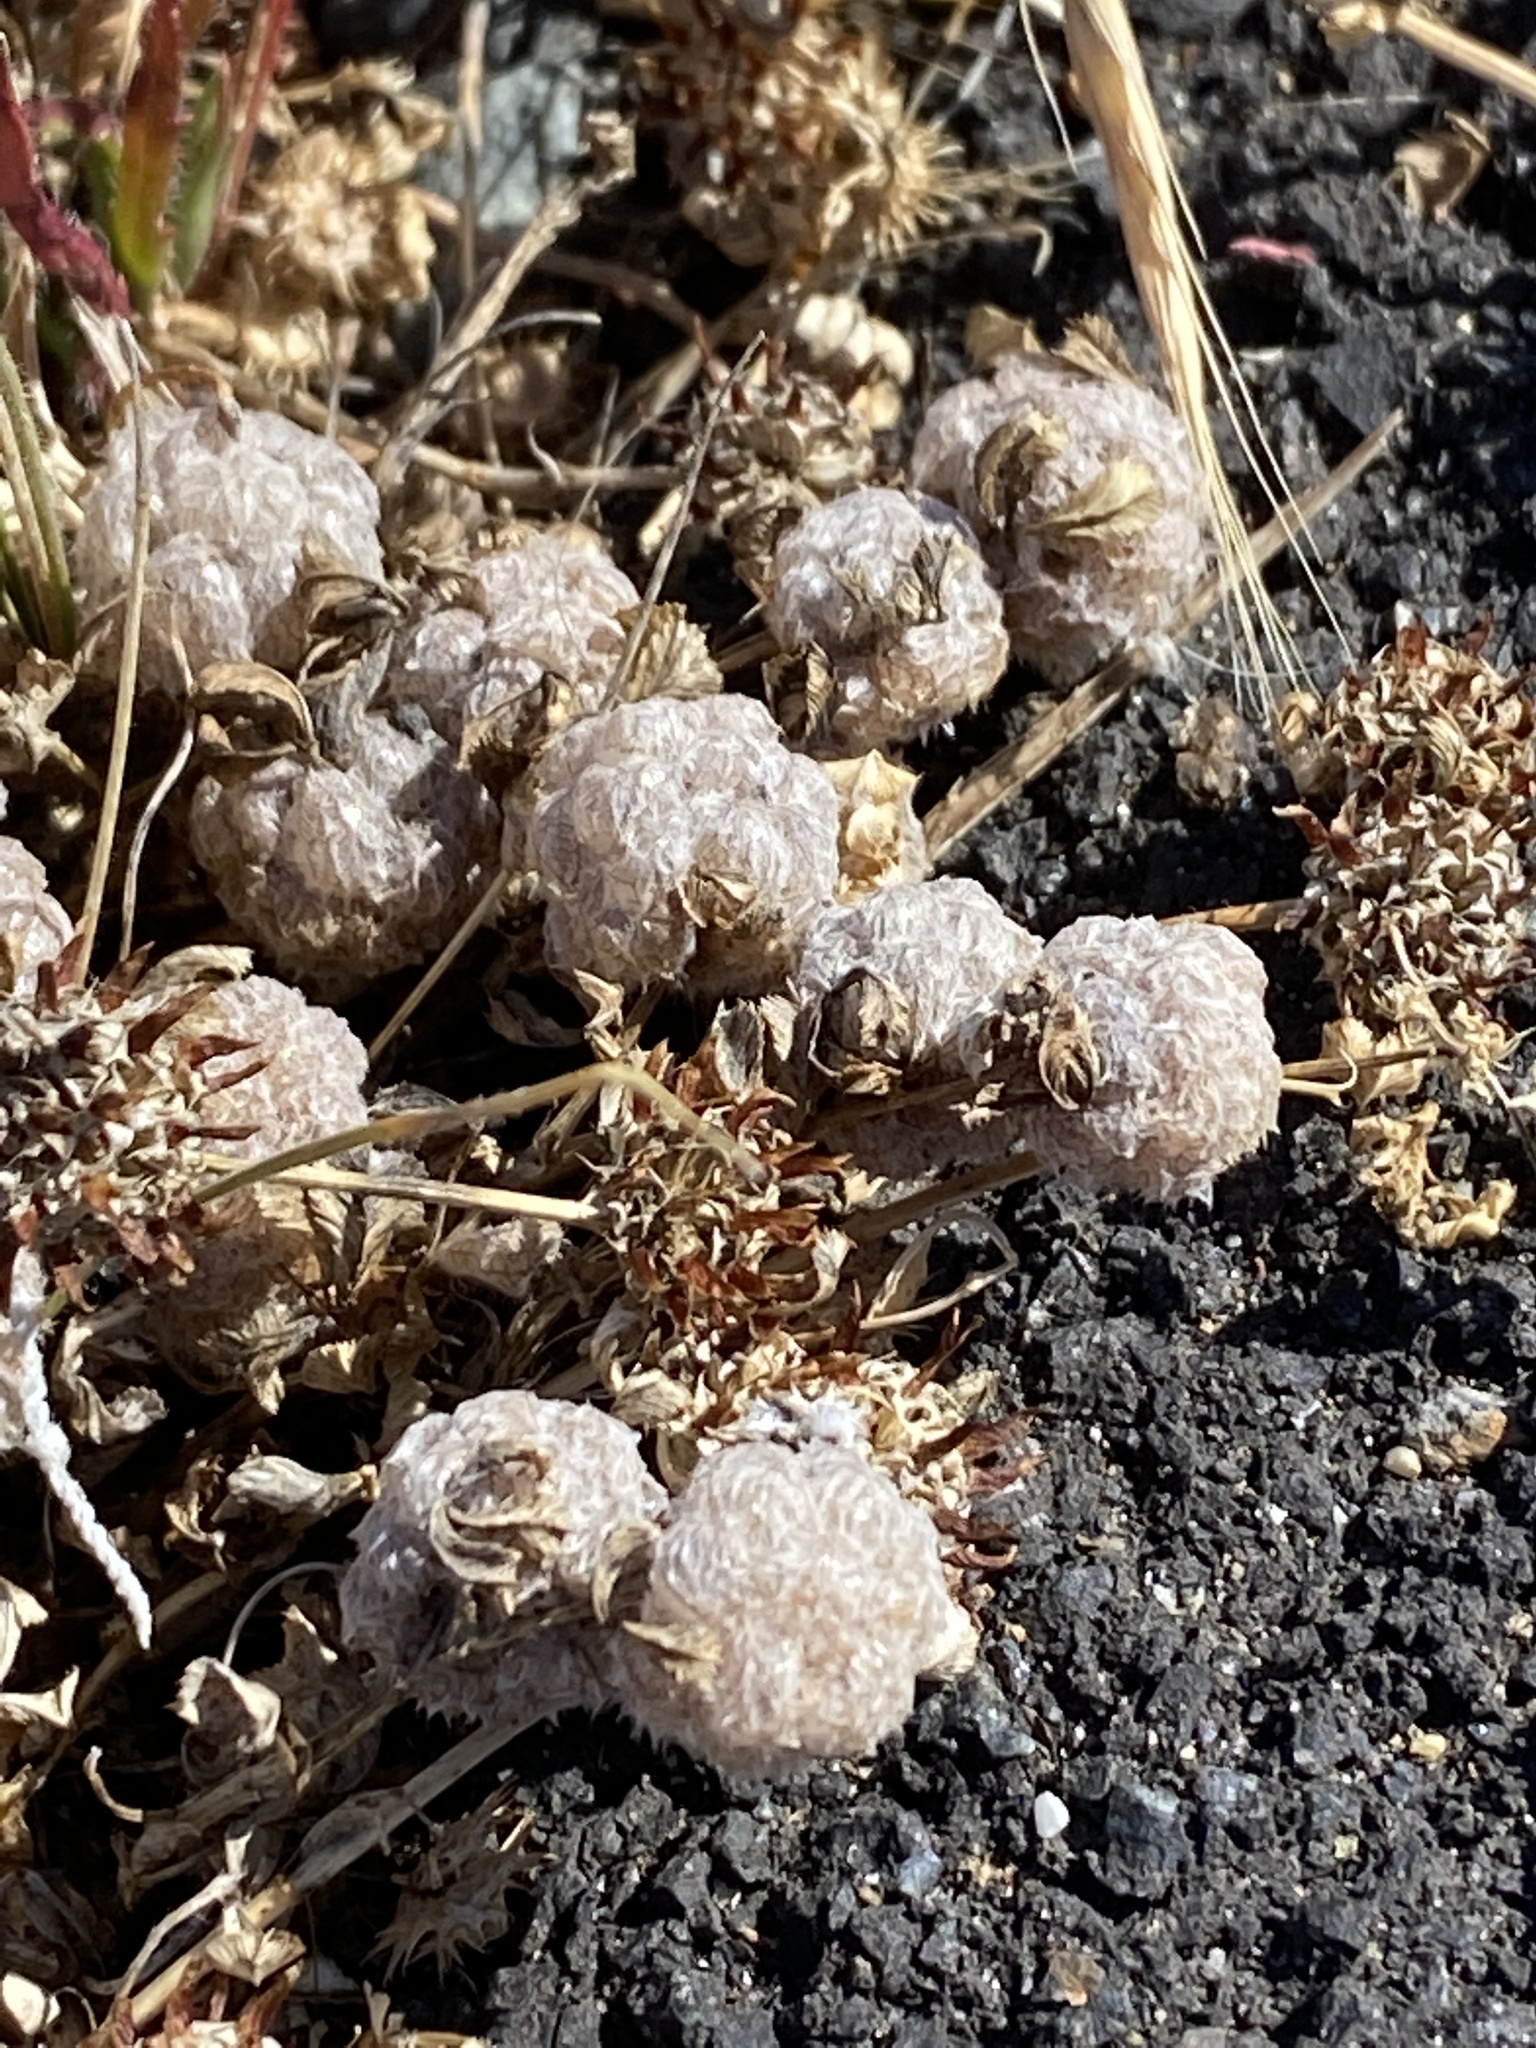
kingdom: Plantae
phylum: Tracheophyta
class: Magnoliopsida
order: Fabales
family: Fabaceae
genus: Trifolium
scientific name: Trifolium tomentosum
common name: Woolly clover
